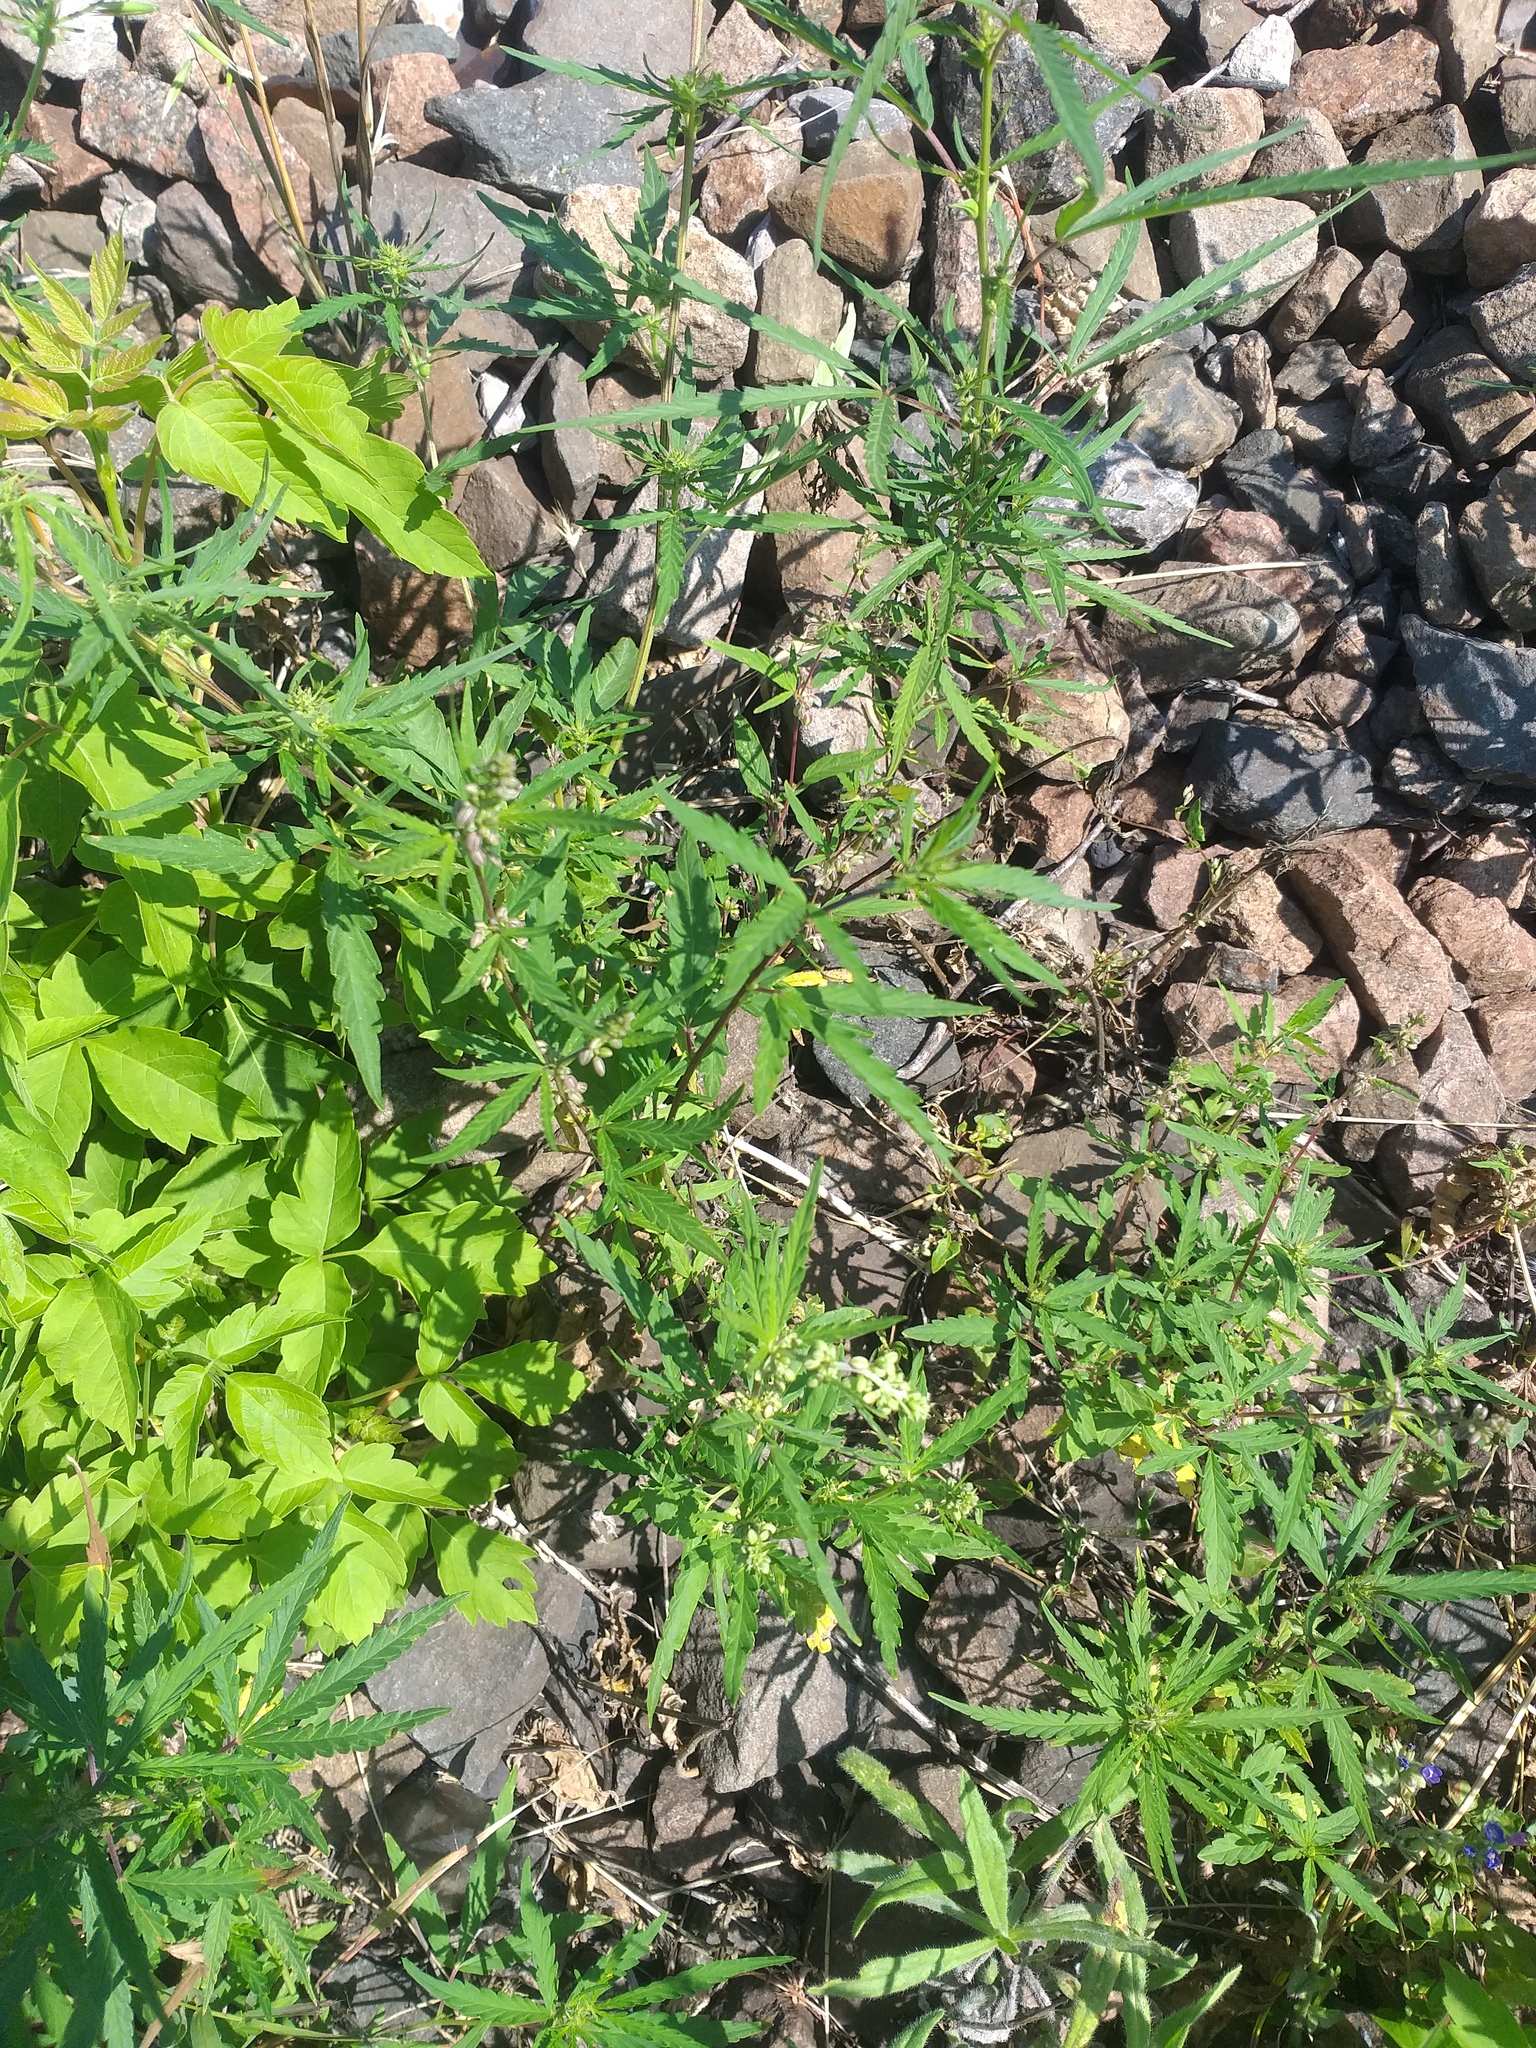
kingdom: Plantae
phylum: Tracheophyta
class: Magnoliopsida
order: Rosales
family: Cannabaceae
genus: Cannabis
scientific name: Cannabis sativa
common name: Hemp
